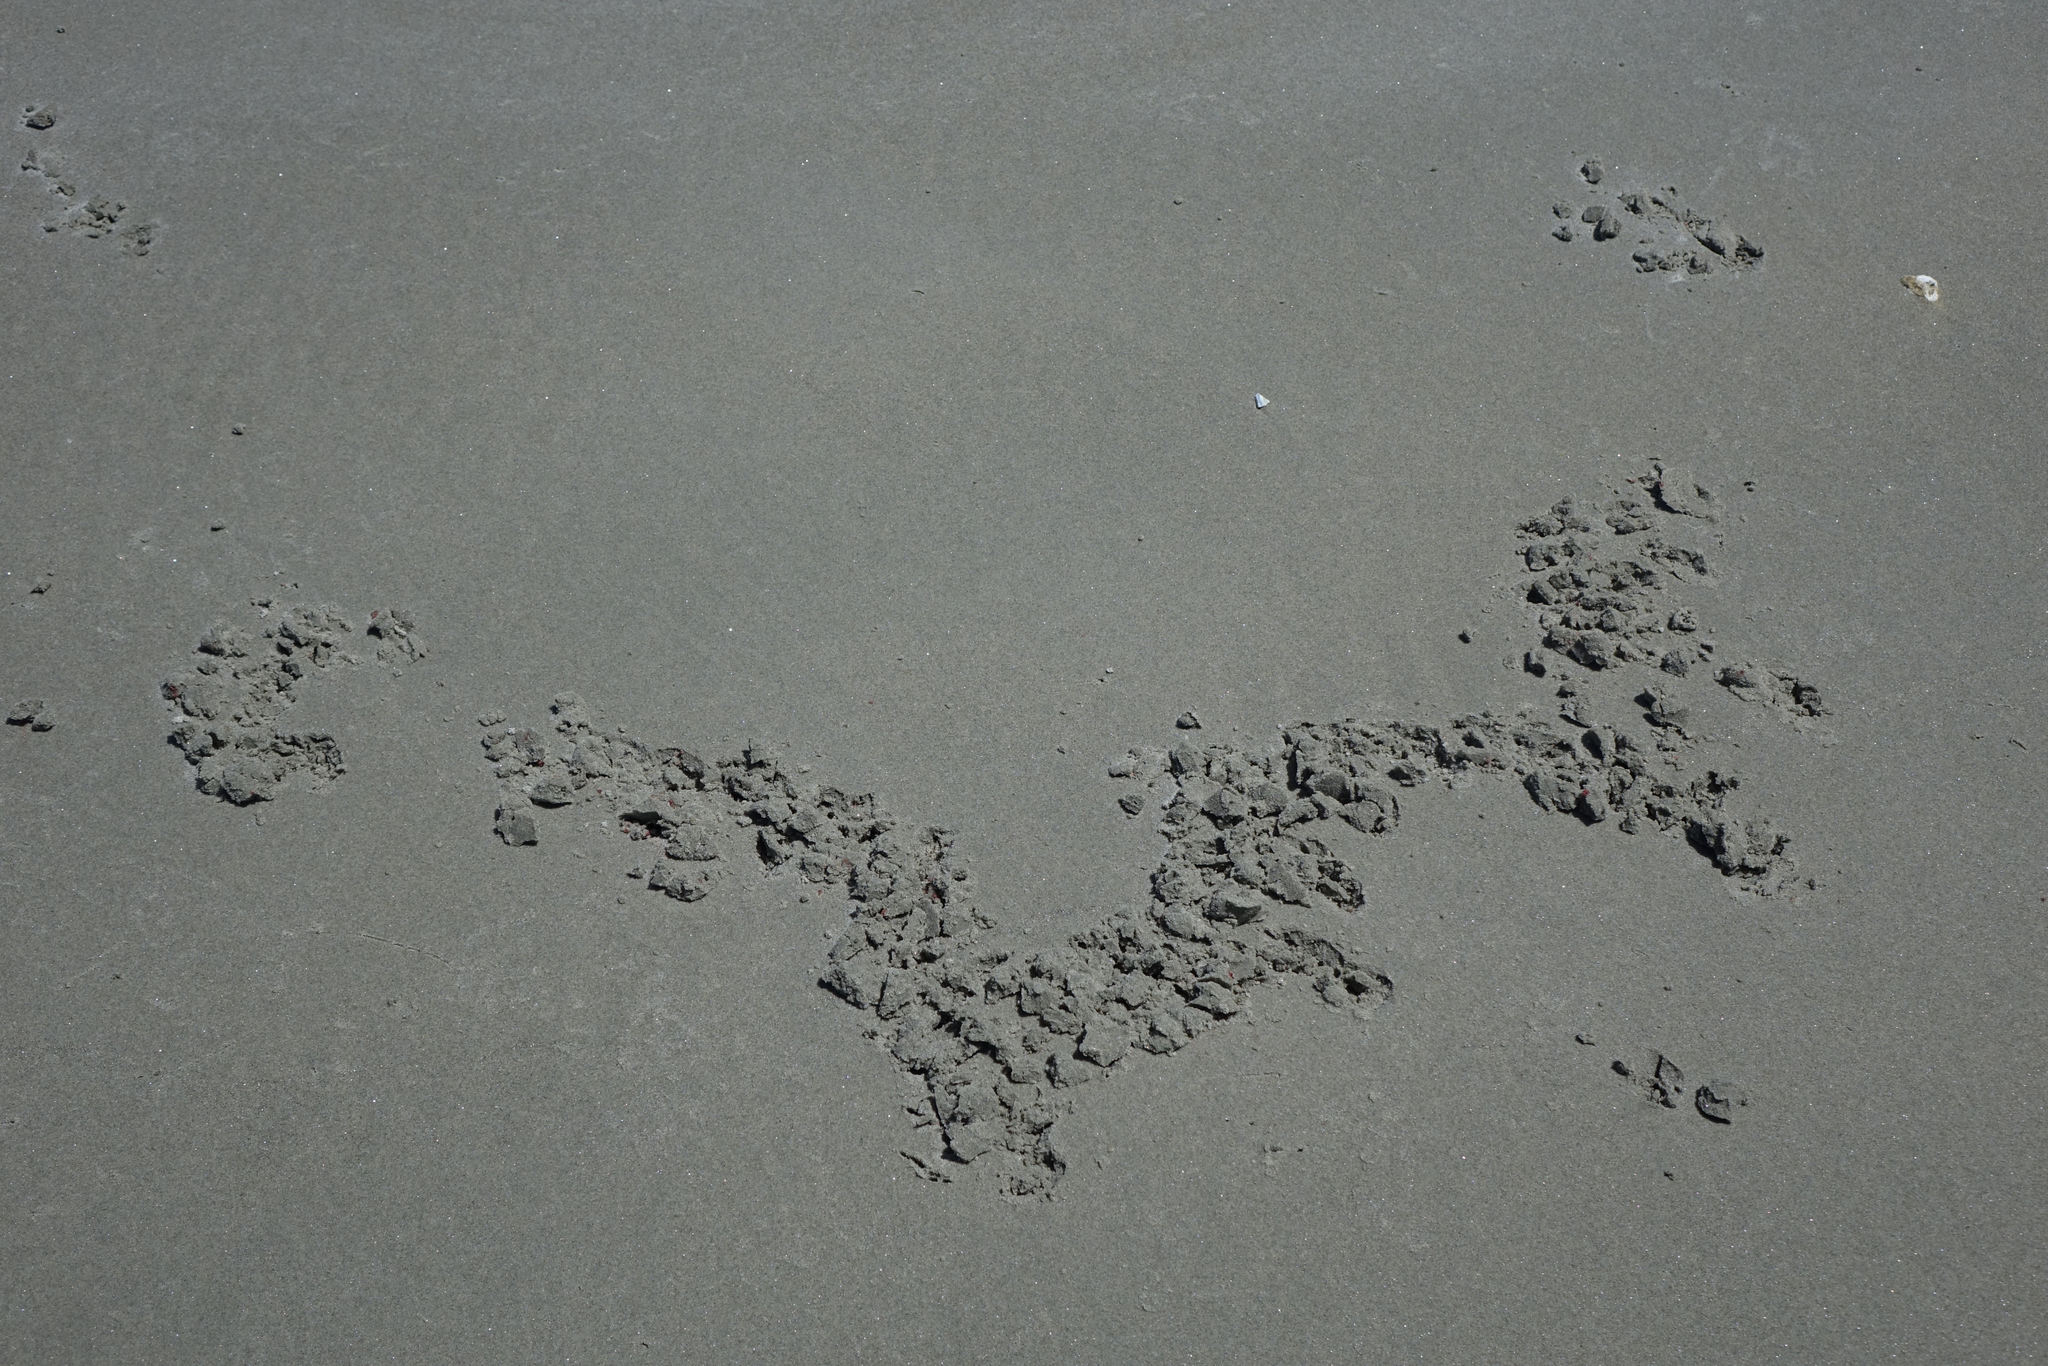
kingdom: Animalia
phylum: Chordata
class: Aves
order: Charadriiformes
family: Haematopodidae
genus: Haematopus
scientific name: Haematopus unicolor
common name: Variable oystercatcher
